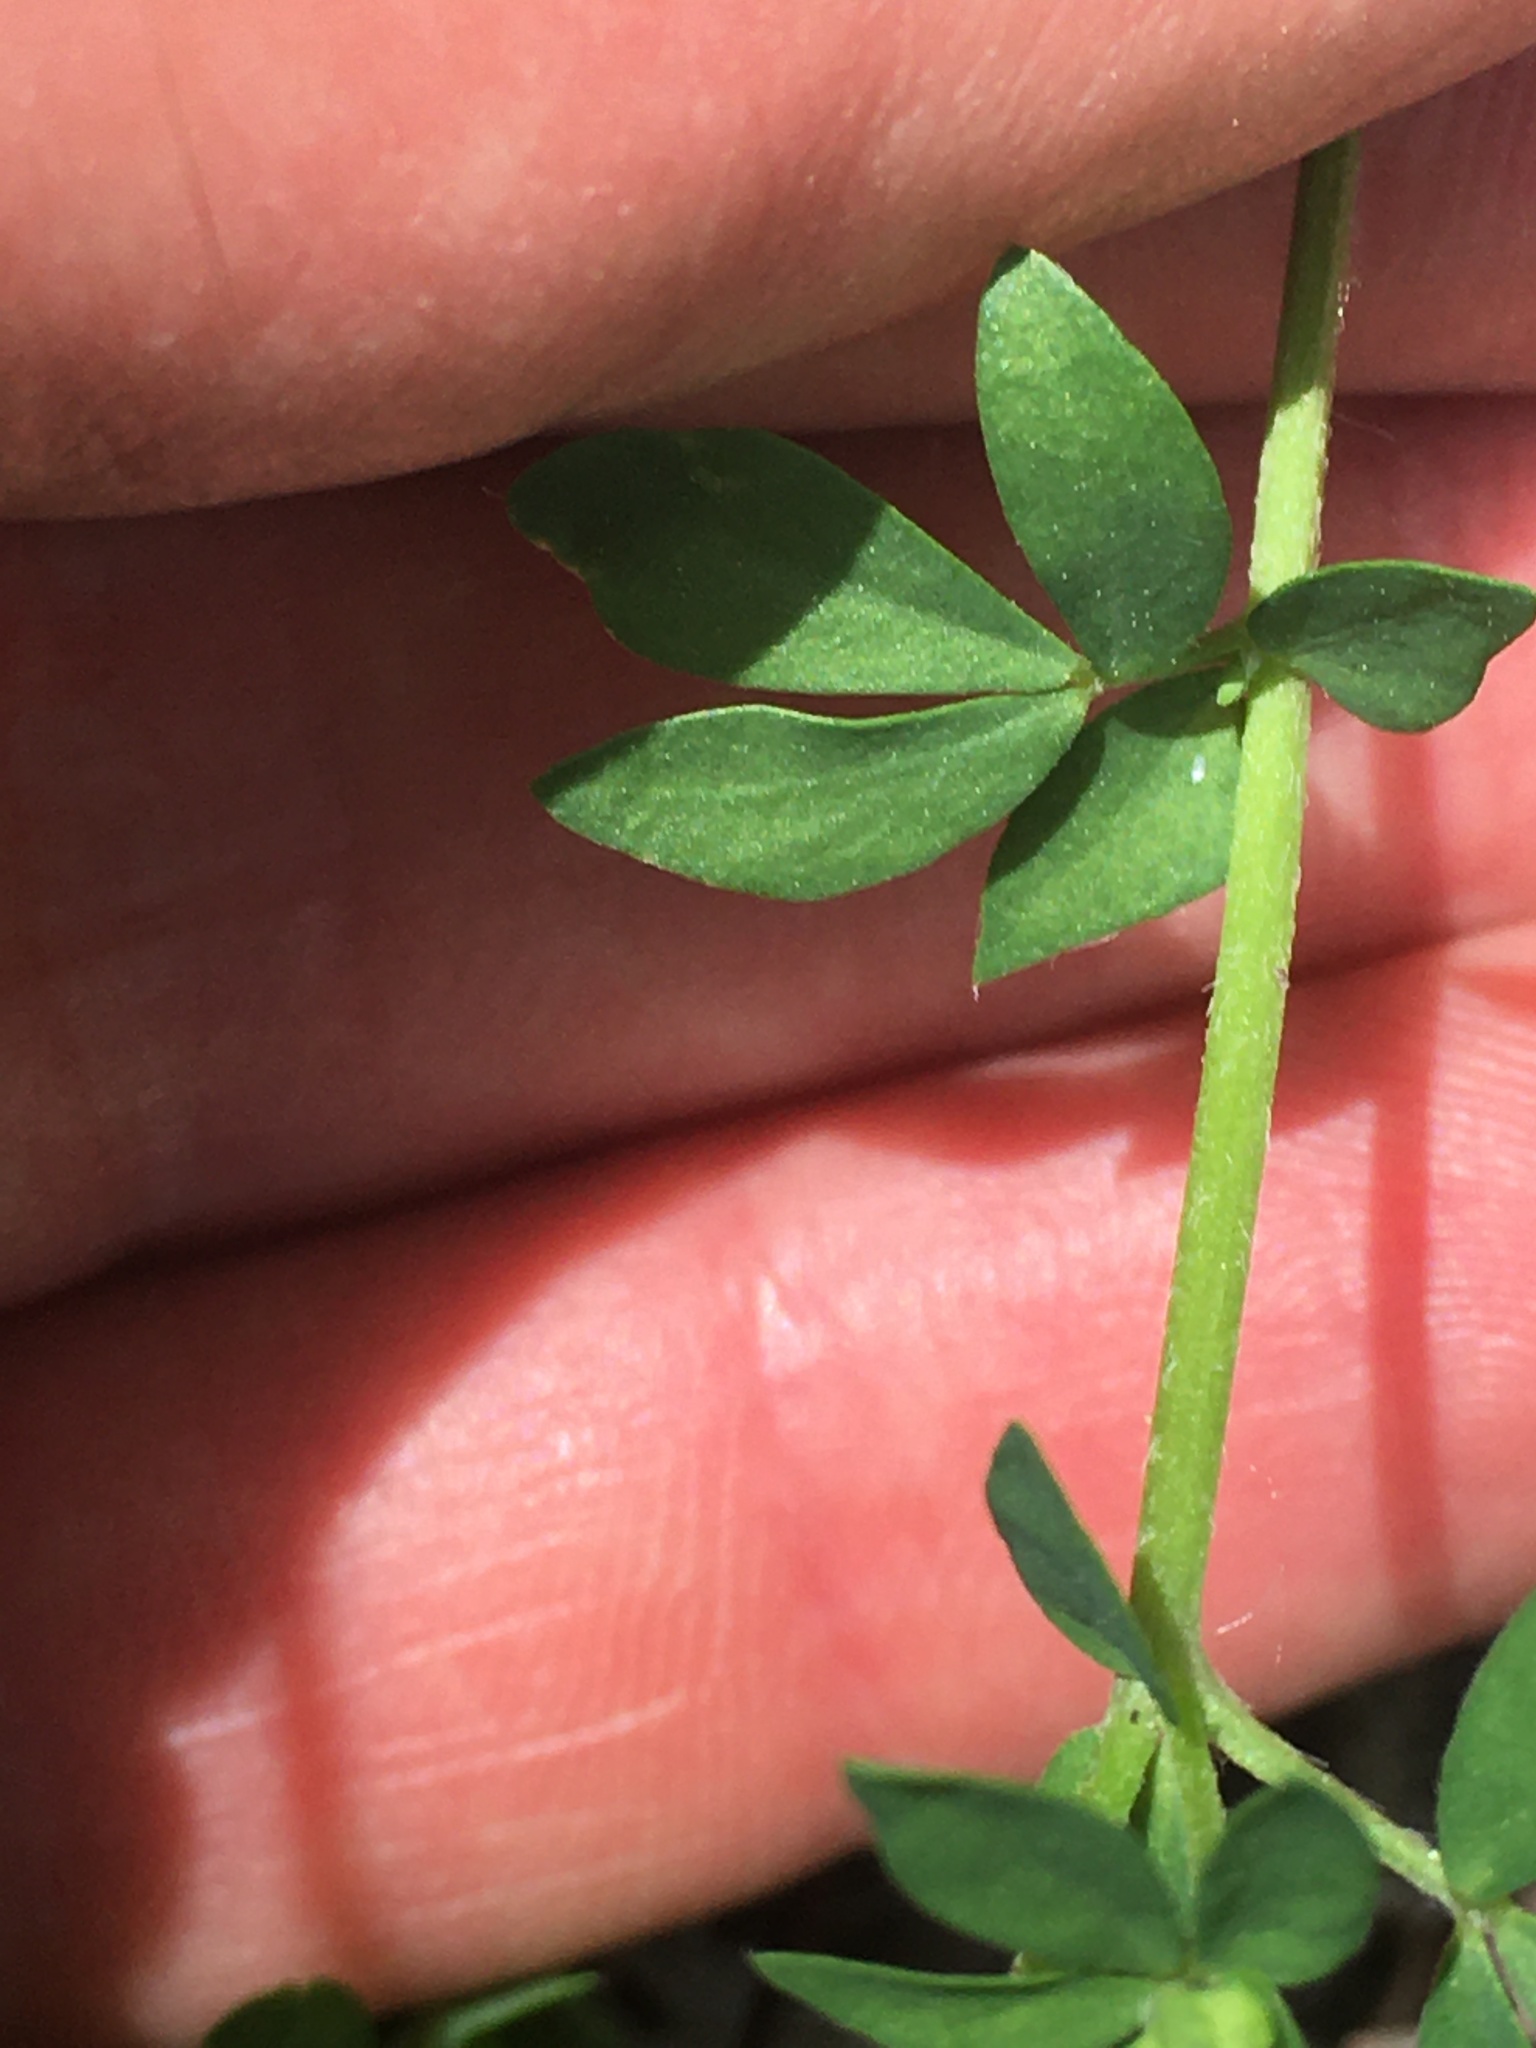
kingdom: Plantae
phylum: Tracheophyta
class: Magnoliopsida
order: Fabales
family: Fabaceae
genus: Lotus
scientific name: Lotus corniculatus
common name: Common bird's-foot-trefoil
